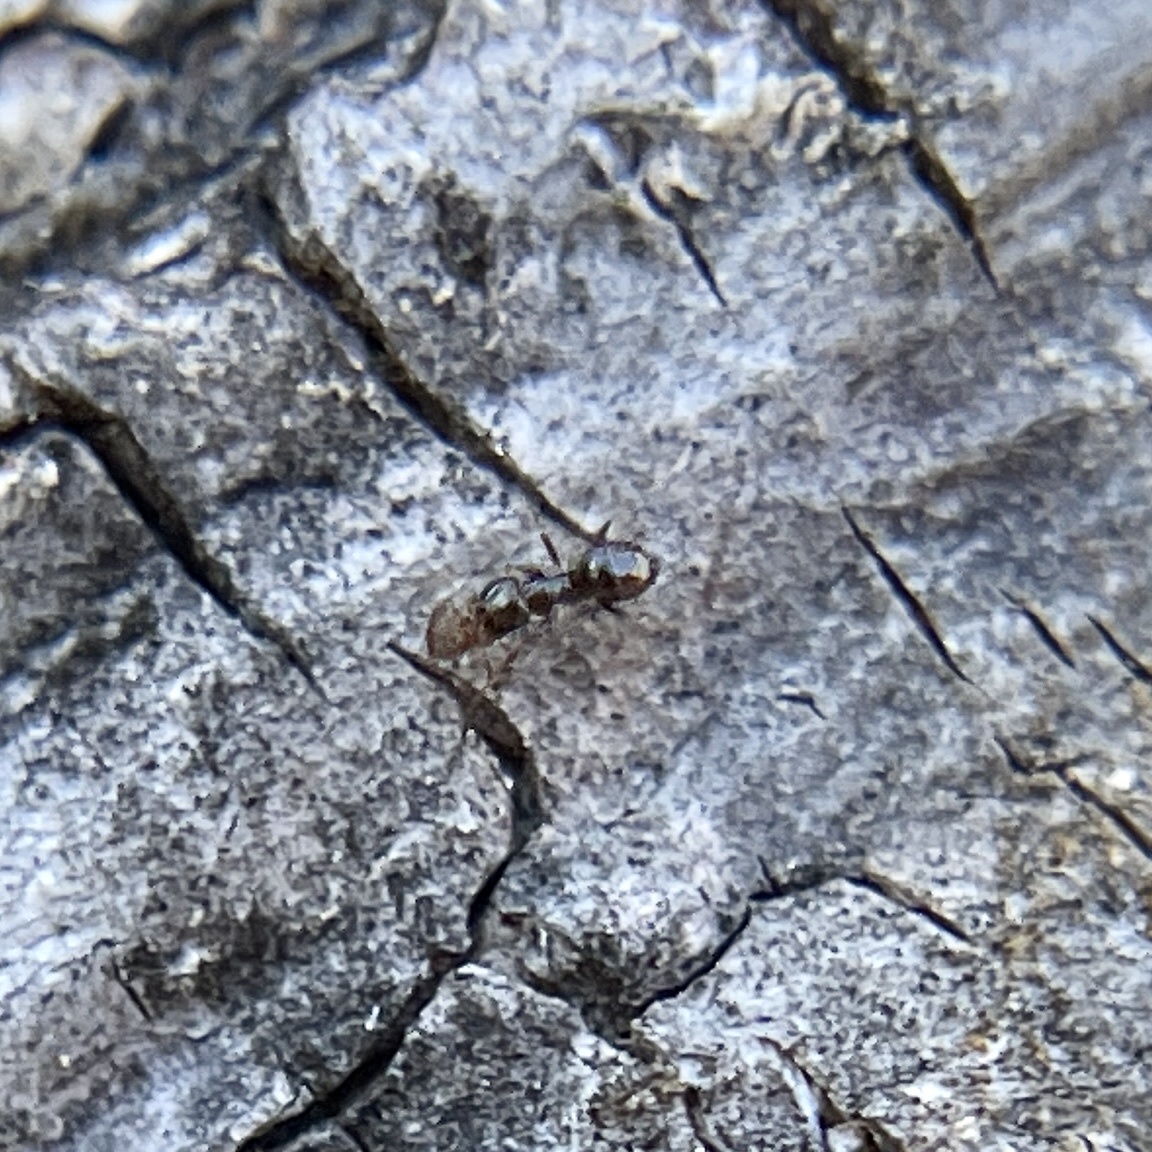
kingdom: Animalia
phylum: Arthropoda
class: Insecta
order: Hymenoptera
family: Formicidae
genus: Brachymyrmex
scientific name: Brachymyrmex patagonicus
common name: Dark rover ant
